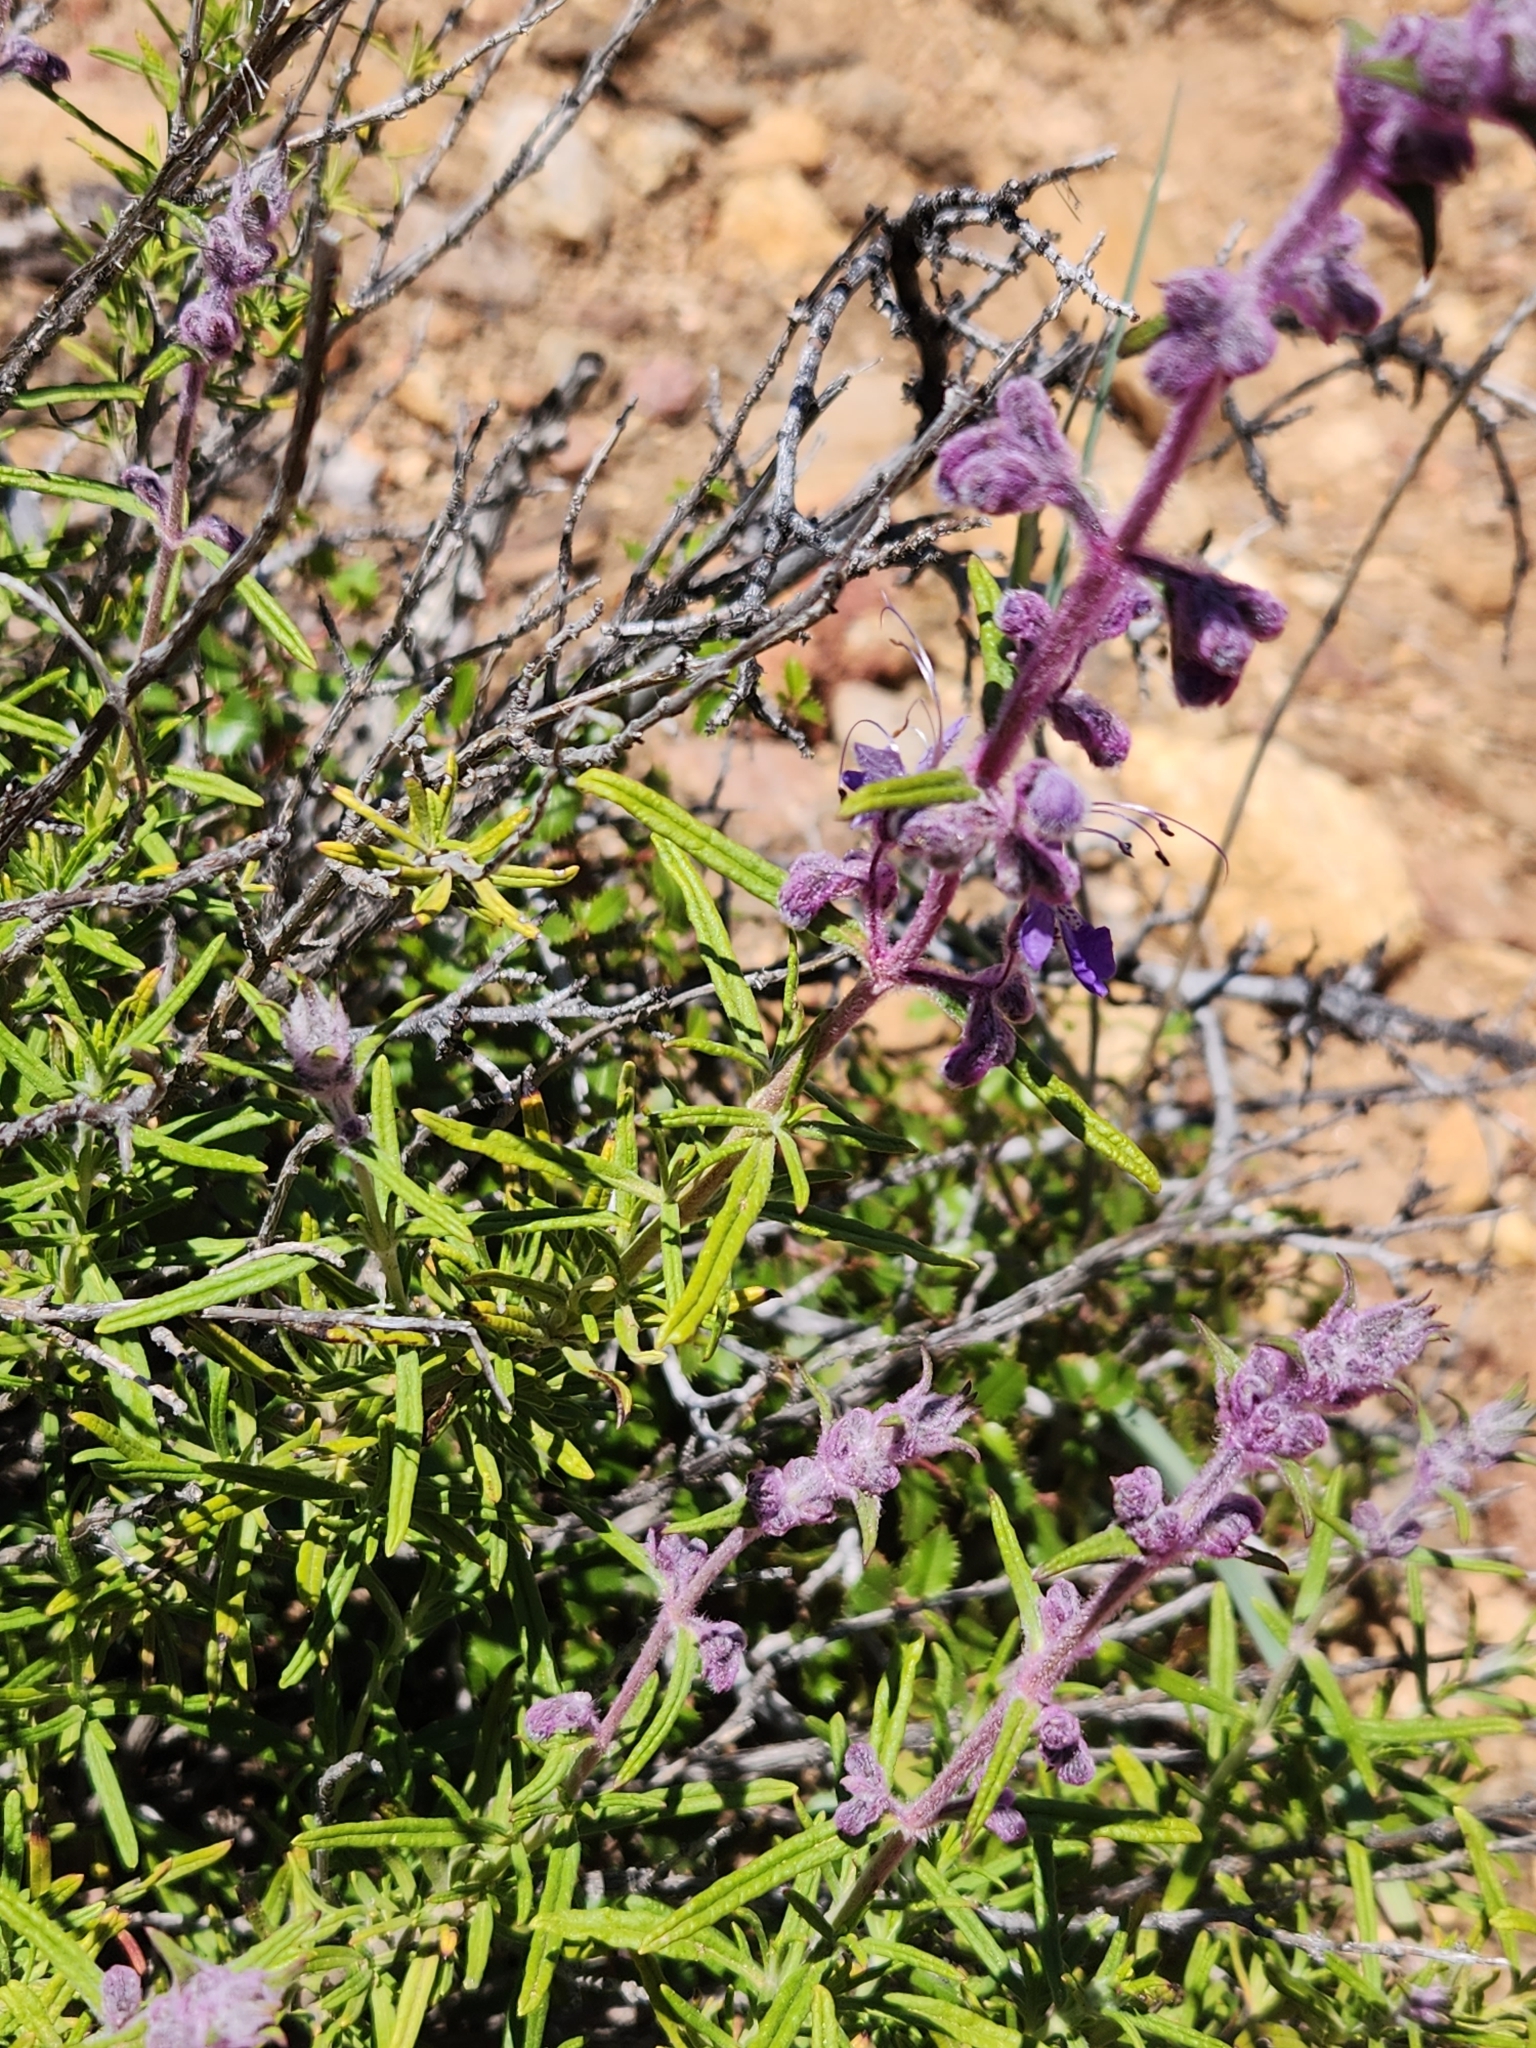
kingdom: Plantae
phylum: Tracheophyta
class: Magnoliopsida
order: Lamiales
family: Lamiaceae
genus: Trichostema
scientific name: Trichostema parishii
